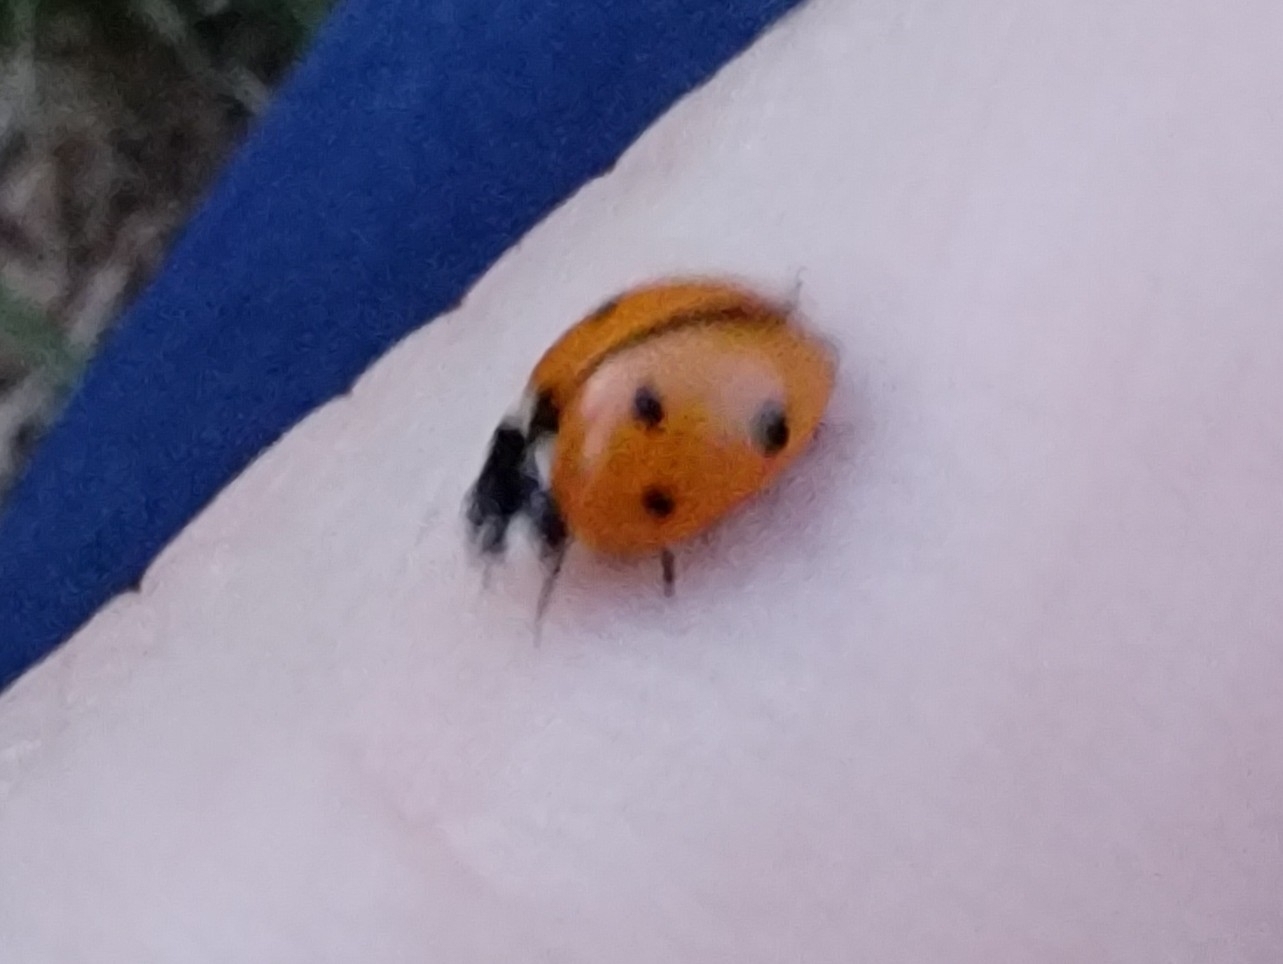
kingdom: Animalia
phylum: Arthropoda
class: Insecta
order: Coleoptera
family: Coccinellidae
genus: Coccinella
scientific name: Coccinella septempunctata
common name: Sevenspotted lady beetle
